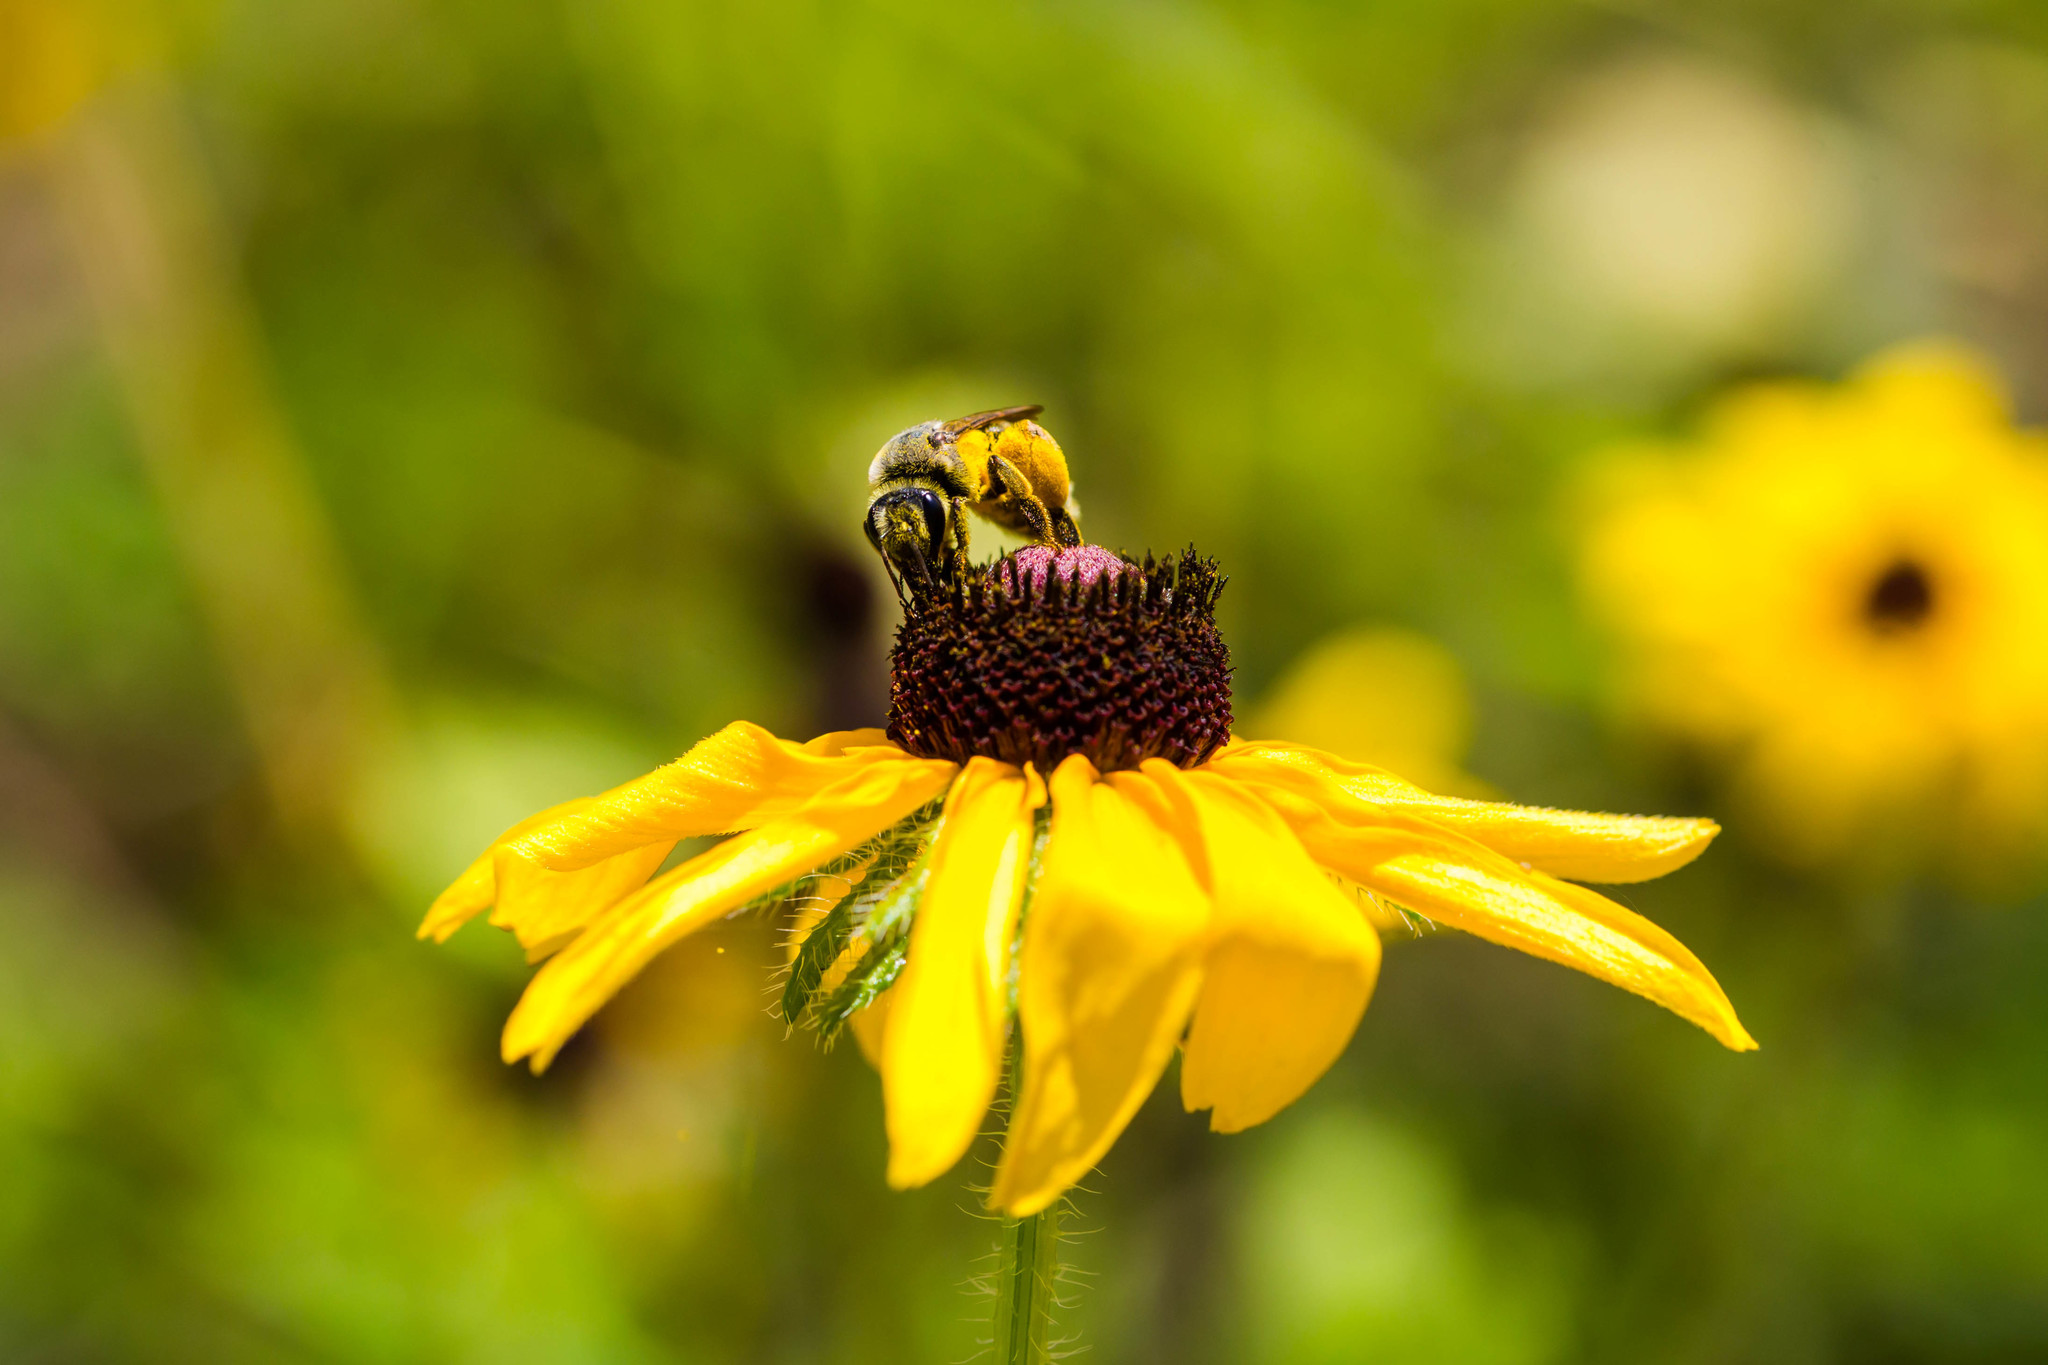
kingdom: Animalia
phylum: Arthropoda
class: Insecta
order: Hymenoptera
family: Andrenidae
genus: Andrena
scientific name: Andrena rudbeckiae
